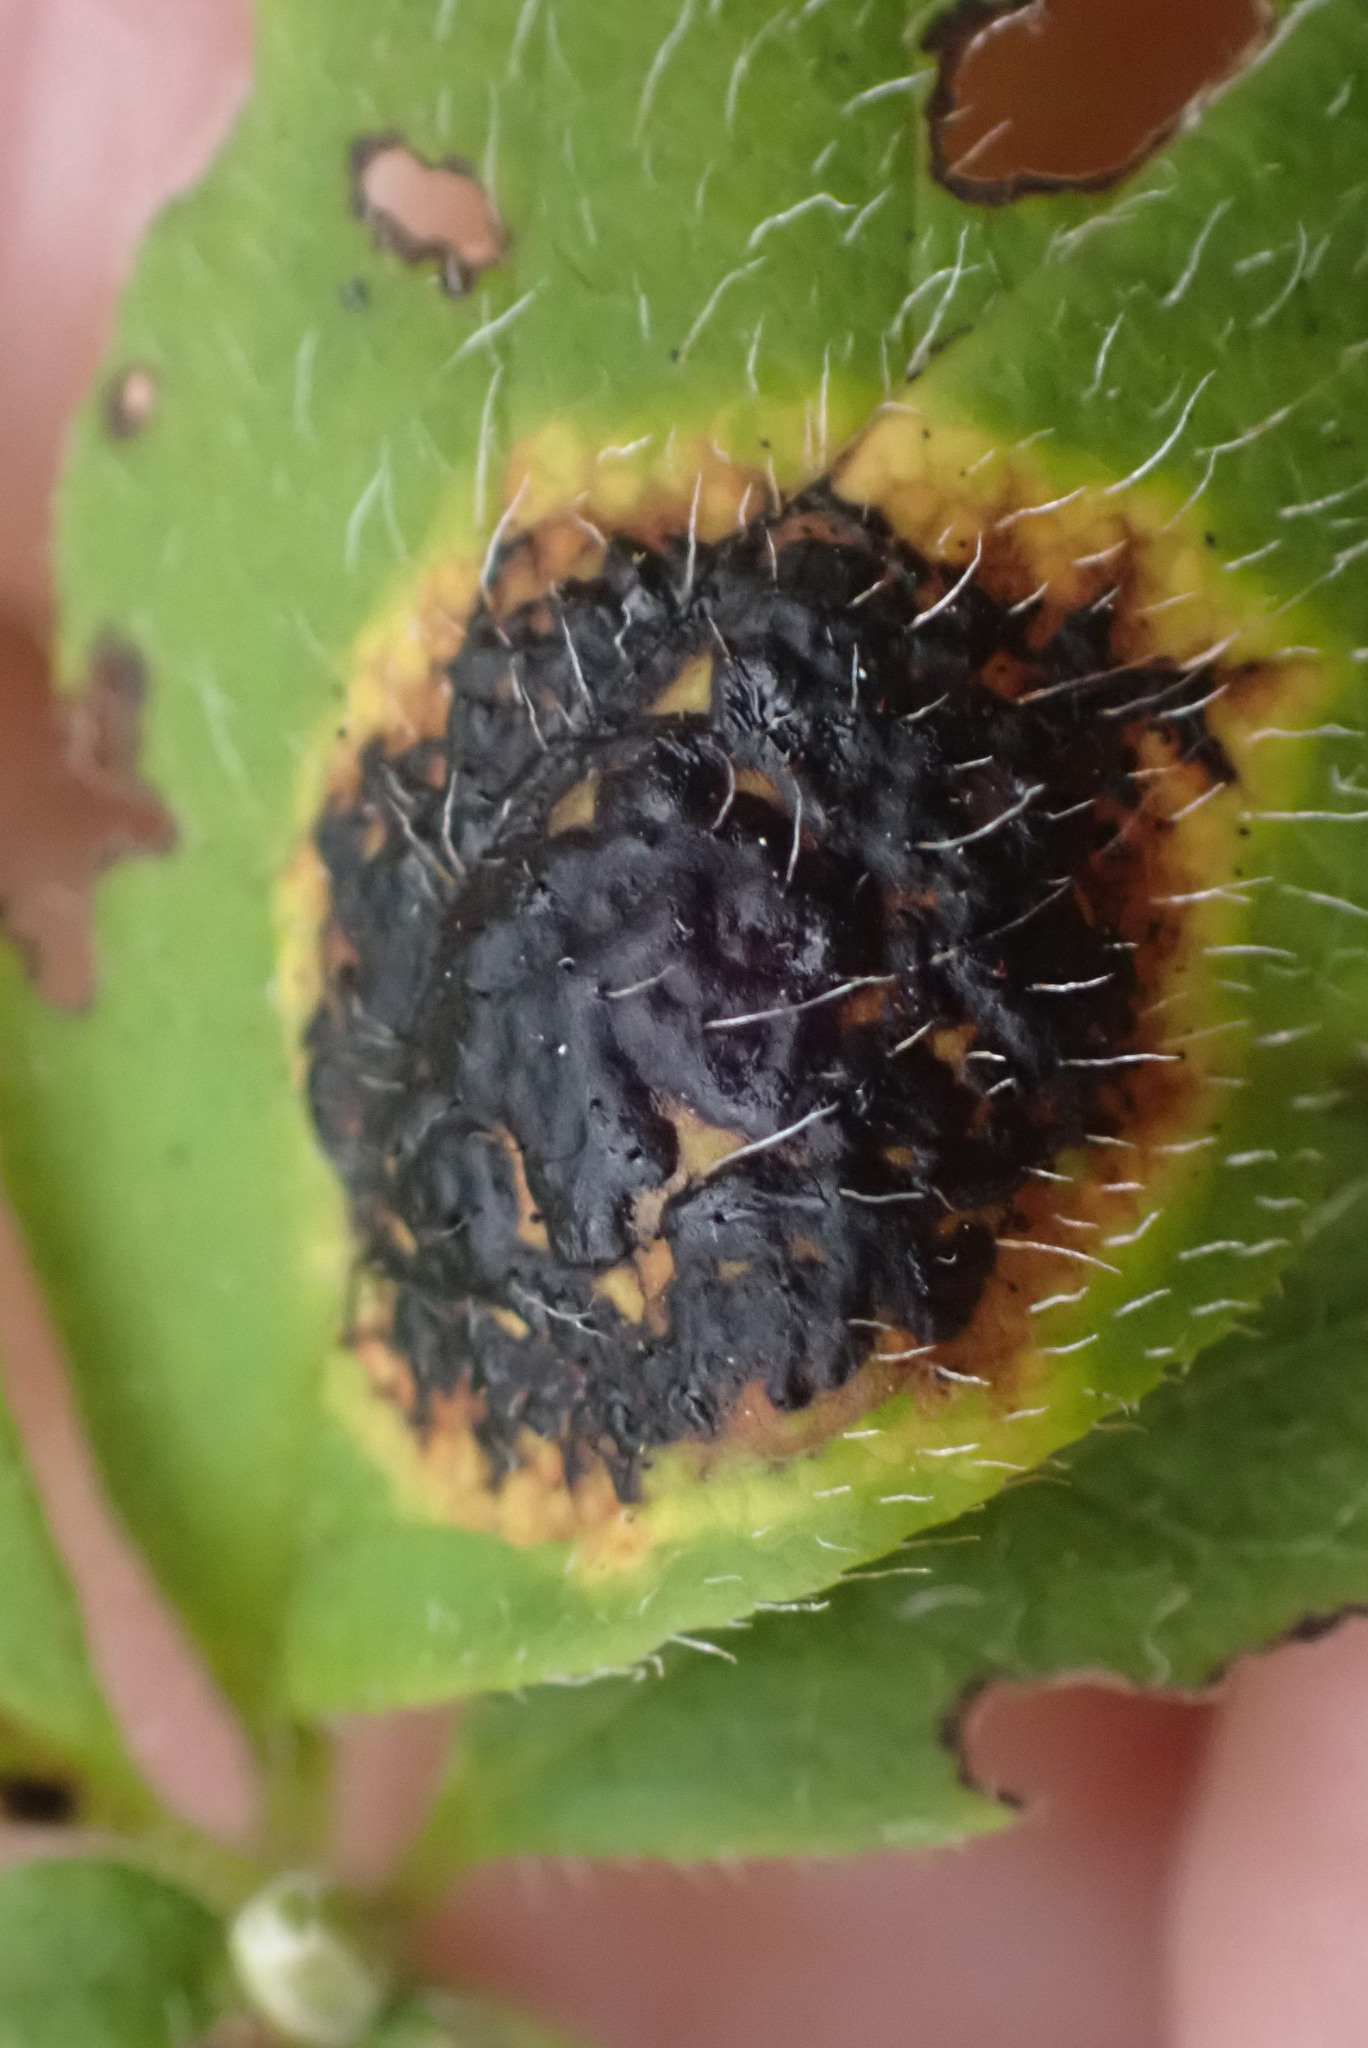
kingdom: Fungi
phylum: Ascomycota
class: Leotiomycetes
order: Rhytismatales
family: Rhytismataceae
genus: Rhytisma
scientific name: Rhytisma
